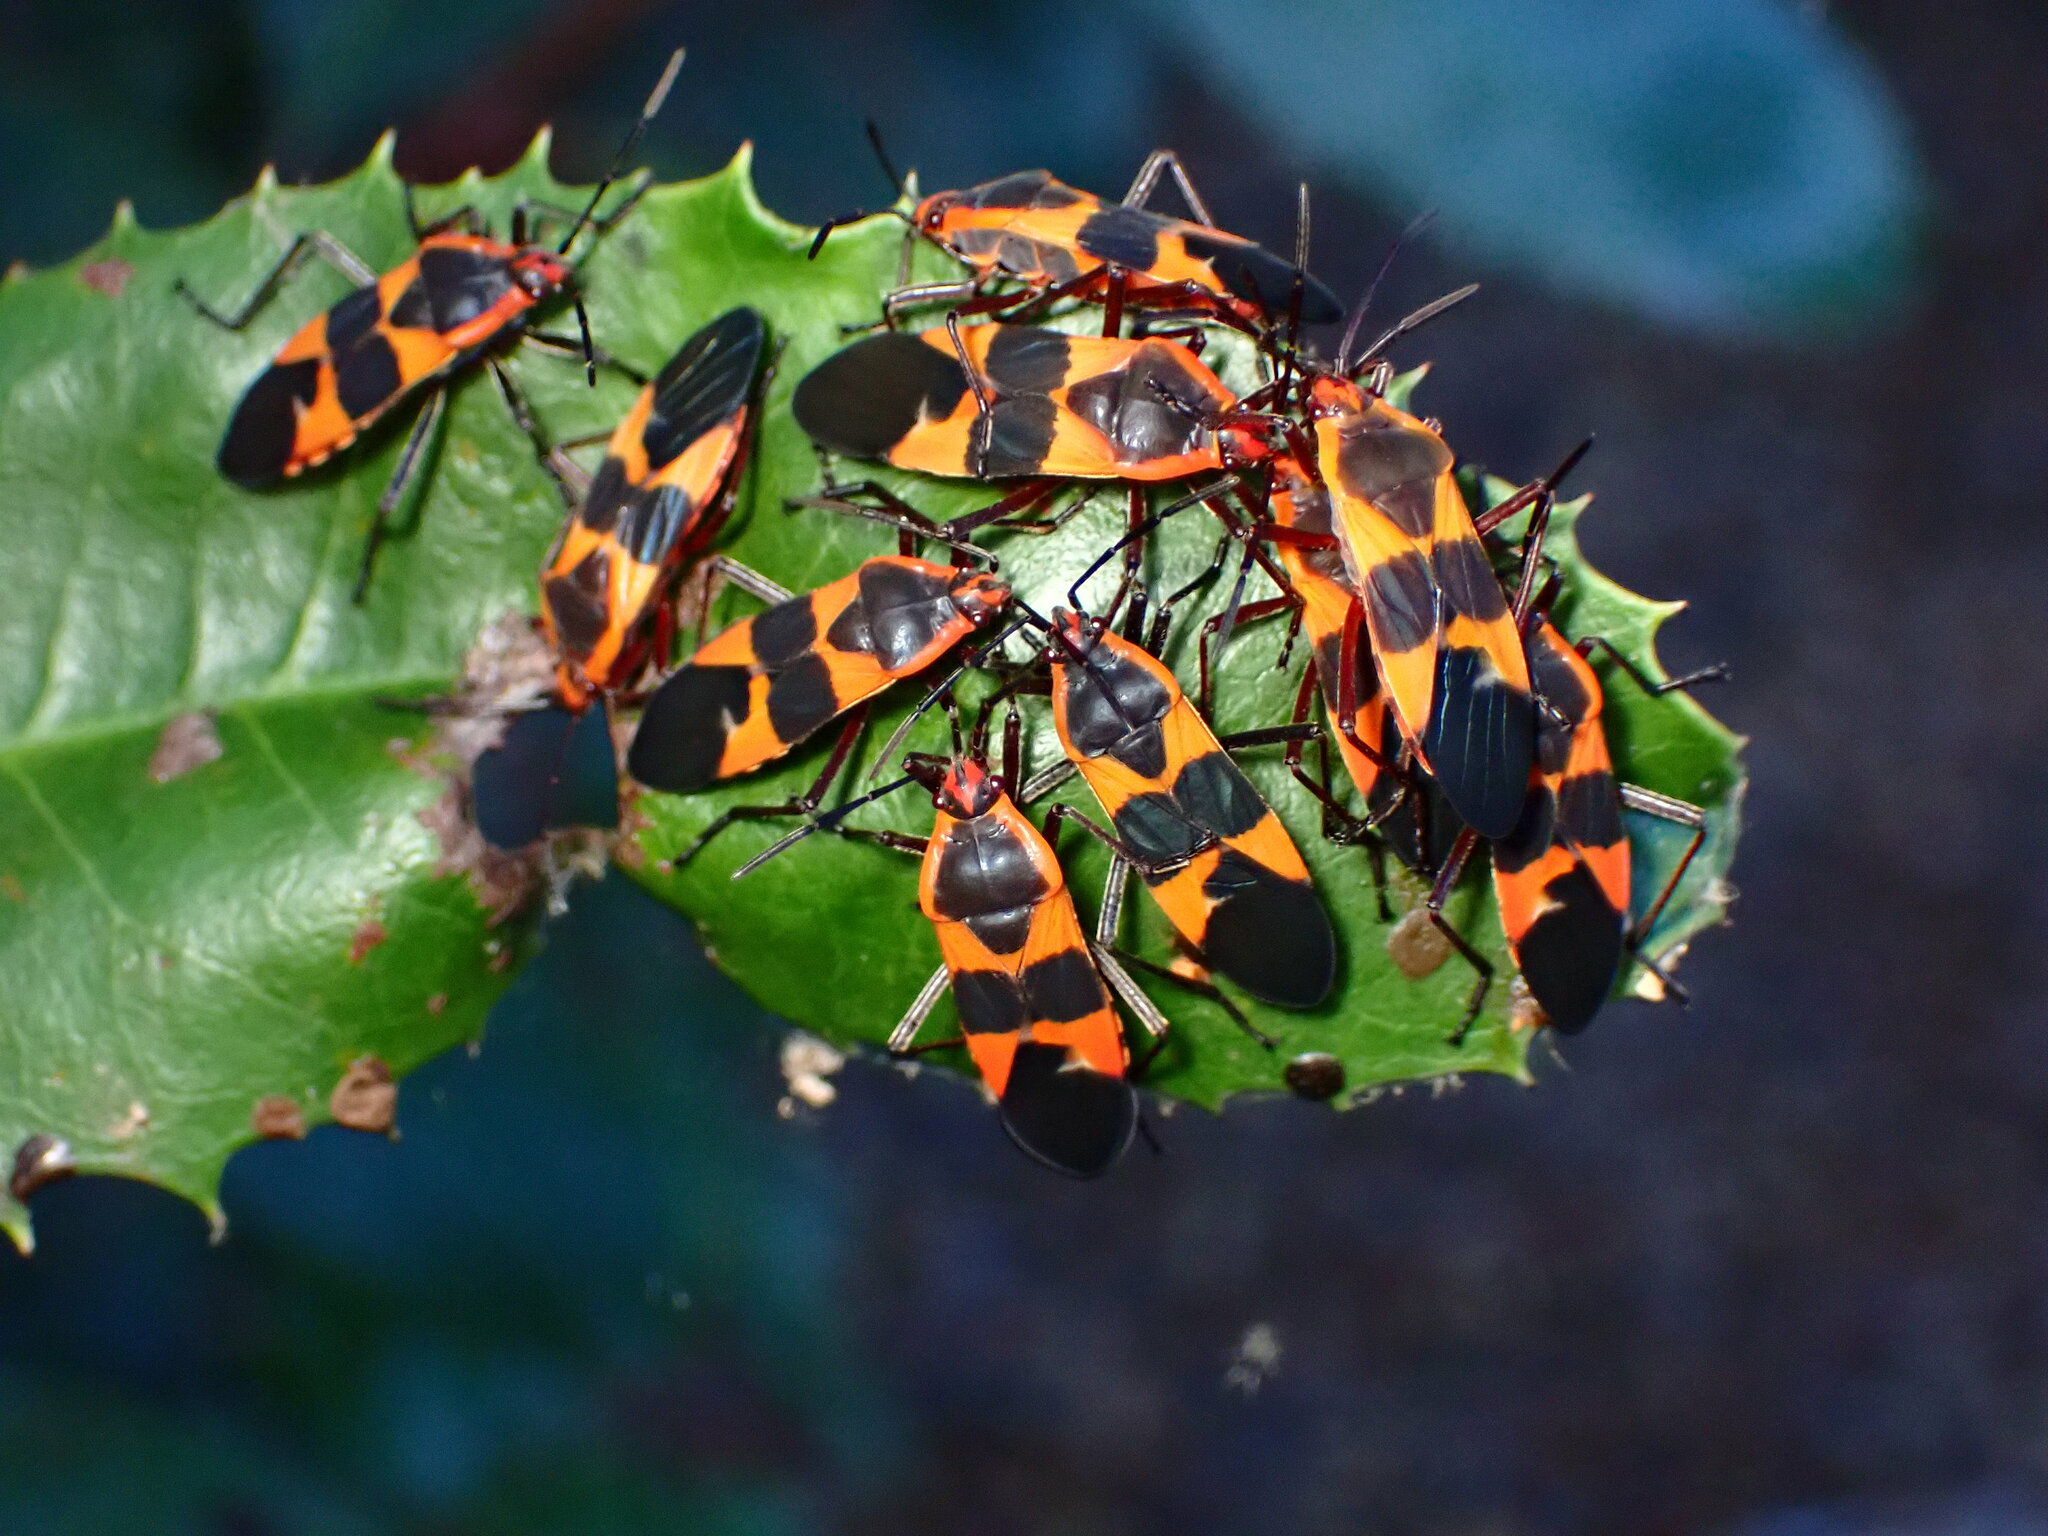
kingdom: Animalia
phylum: Arthropoda
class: Insecta
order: Hemiptera
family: Lygaeidae
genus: Oncopeltus
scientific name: Oncopeltus fasciatus
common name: Large milkweed bug
